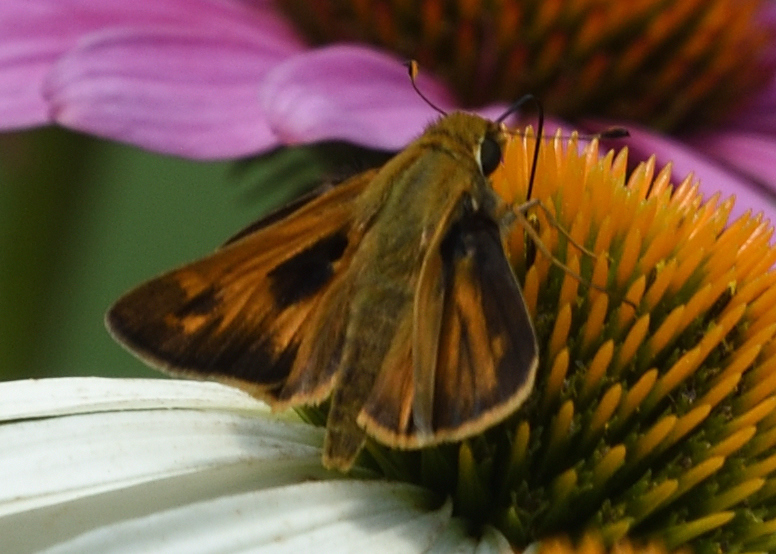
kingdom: Animalia
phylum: Arthropoda
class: Insecta
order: Lepidoptera
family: Hesperiidae
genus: Atalopedes
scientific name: Atalopedes
